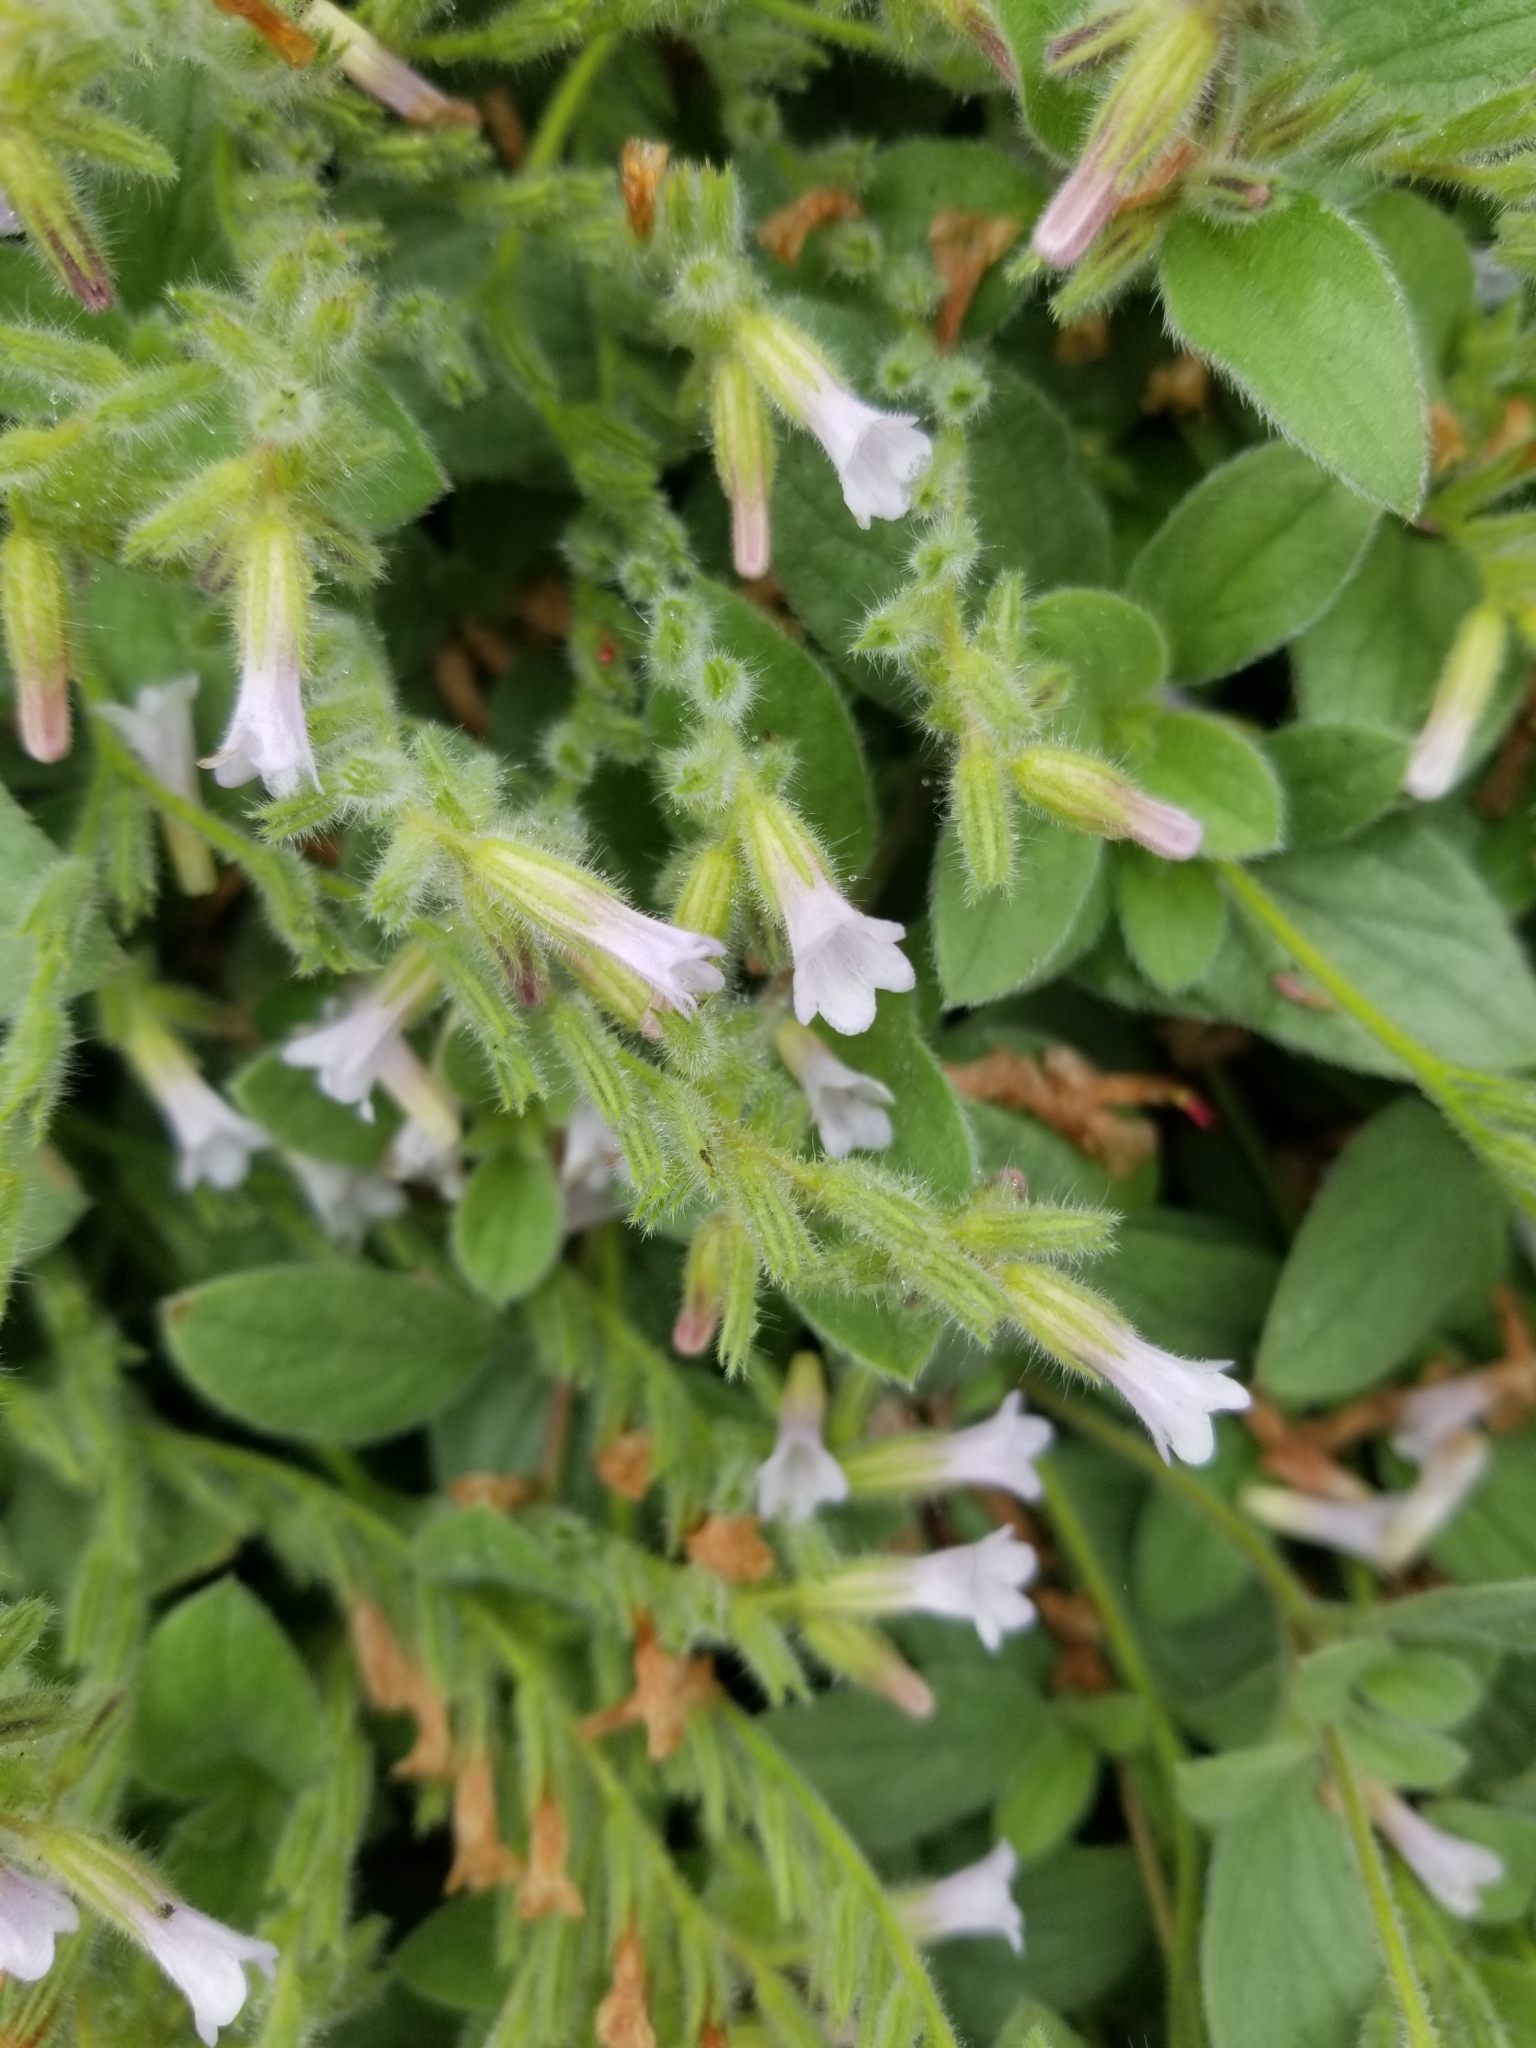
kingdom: Plantae
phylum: Tracheophyta
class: Magnoliopsida
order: Boraginales
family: Hydrophyllaceae
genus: Draperia
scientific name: Draperia systyla
